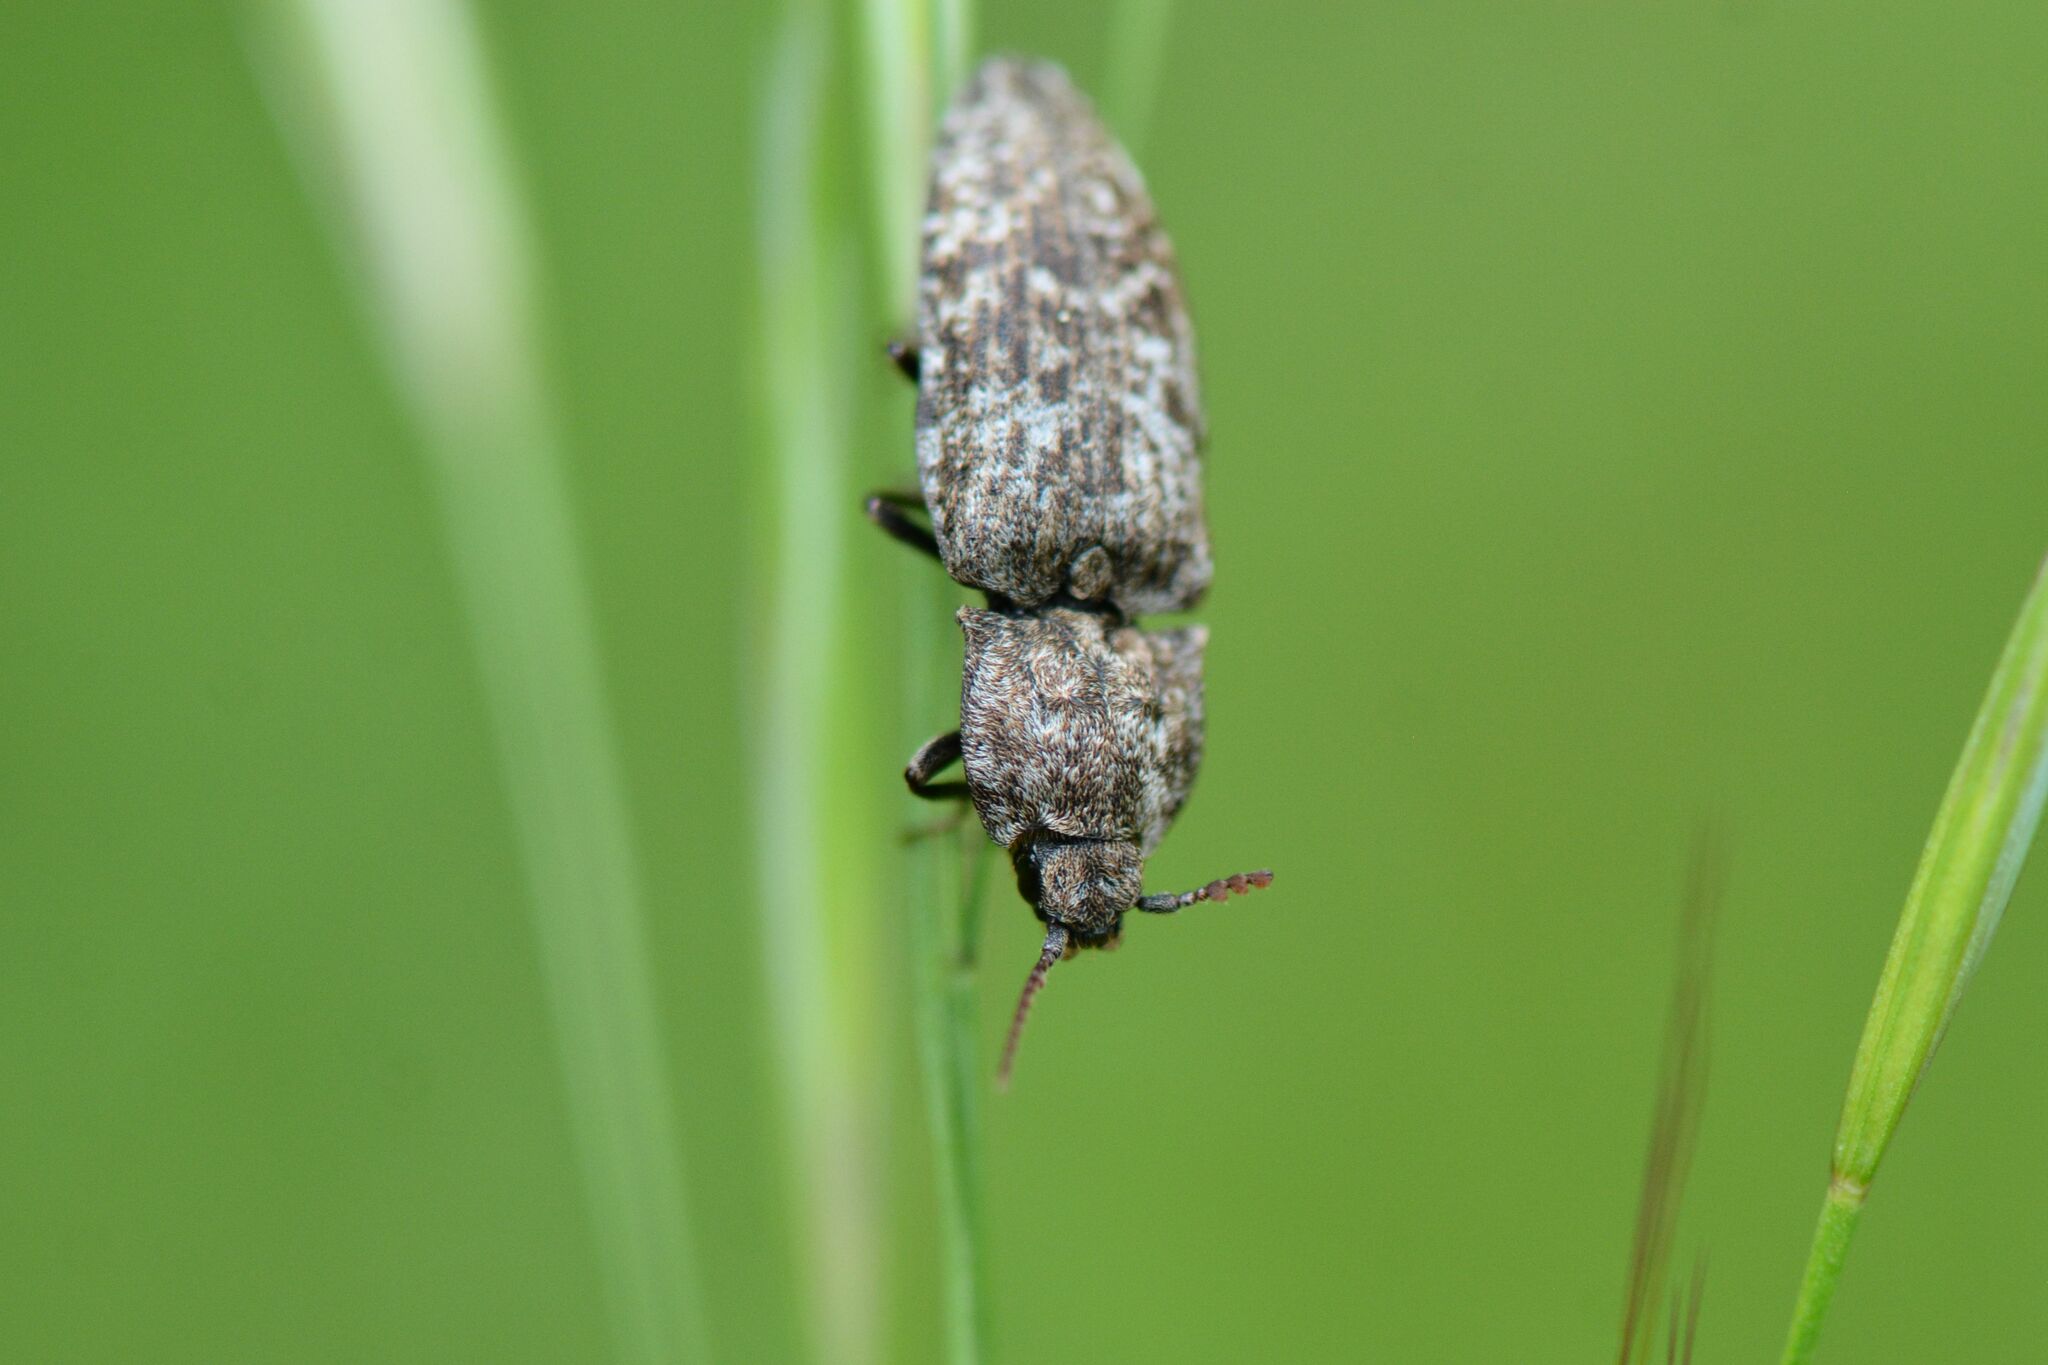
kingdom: Animalia
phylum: Arthropoda
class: Insecta
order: Coleoptera
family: Elateridae
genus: Agrypnus
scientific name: Agrypnus murinus
